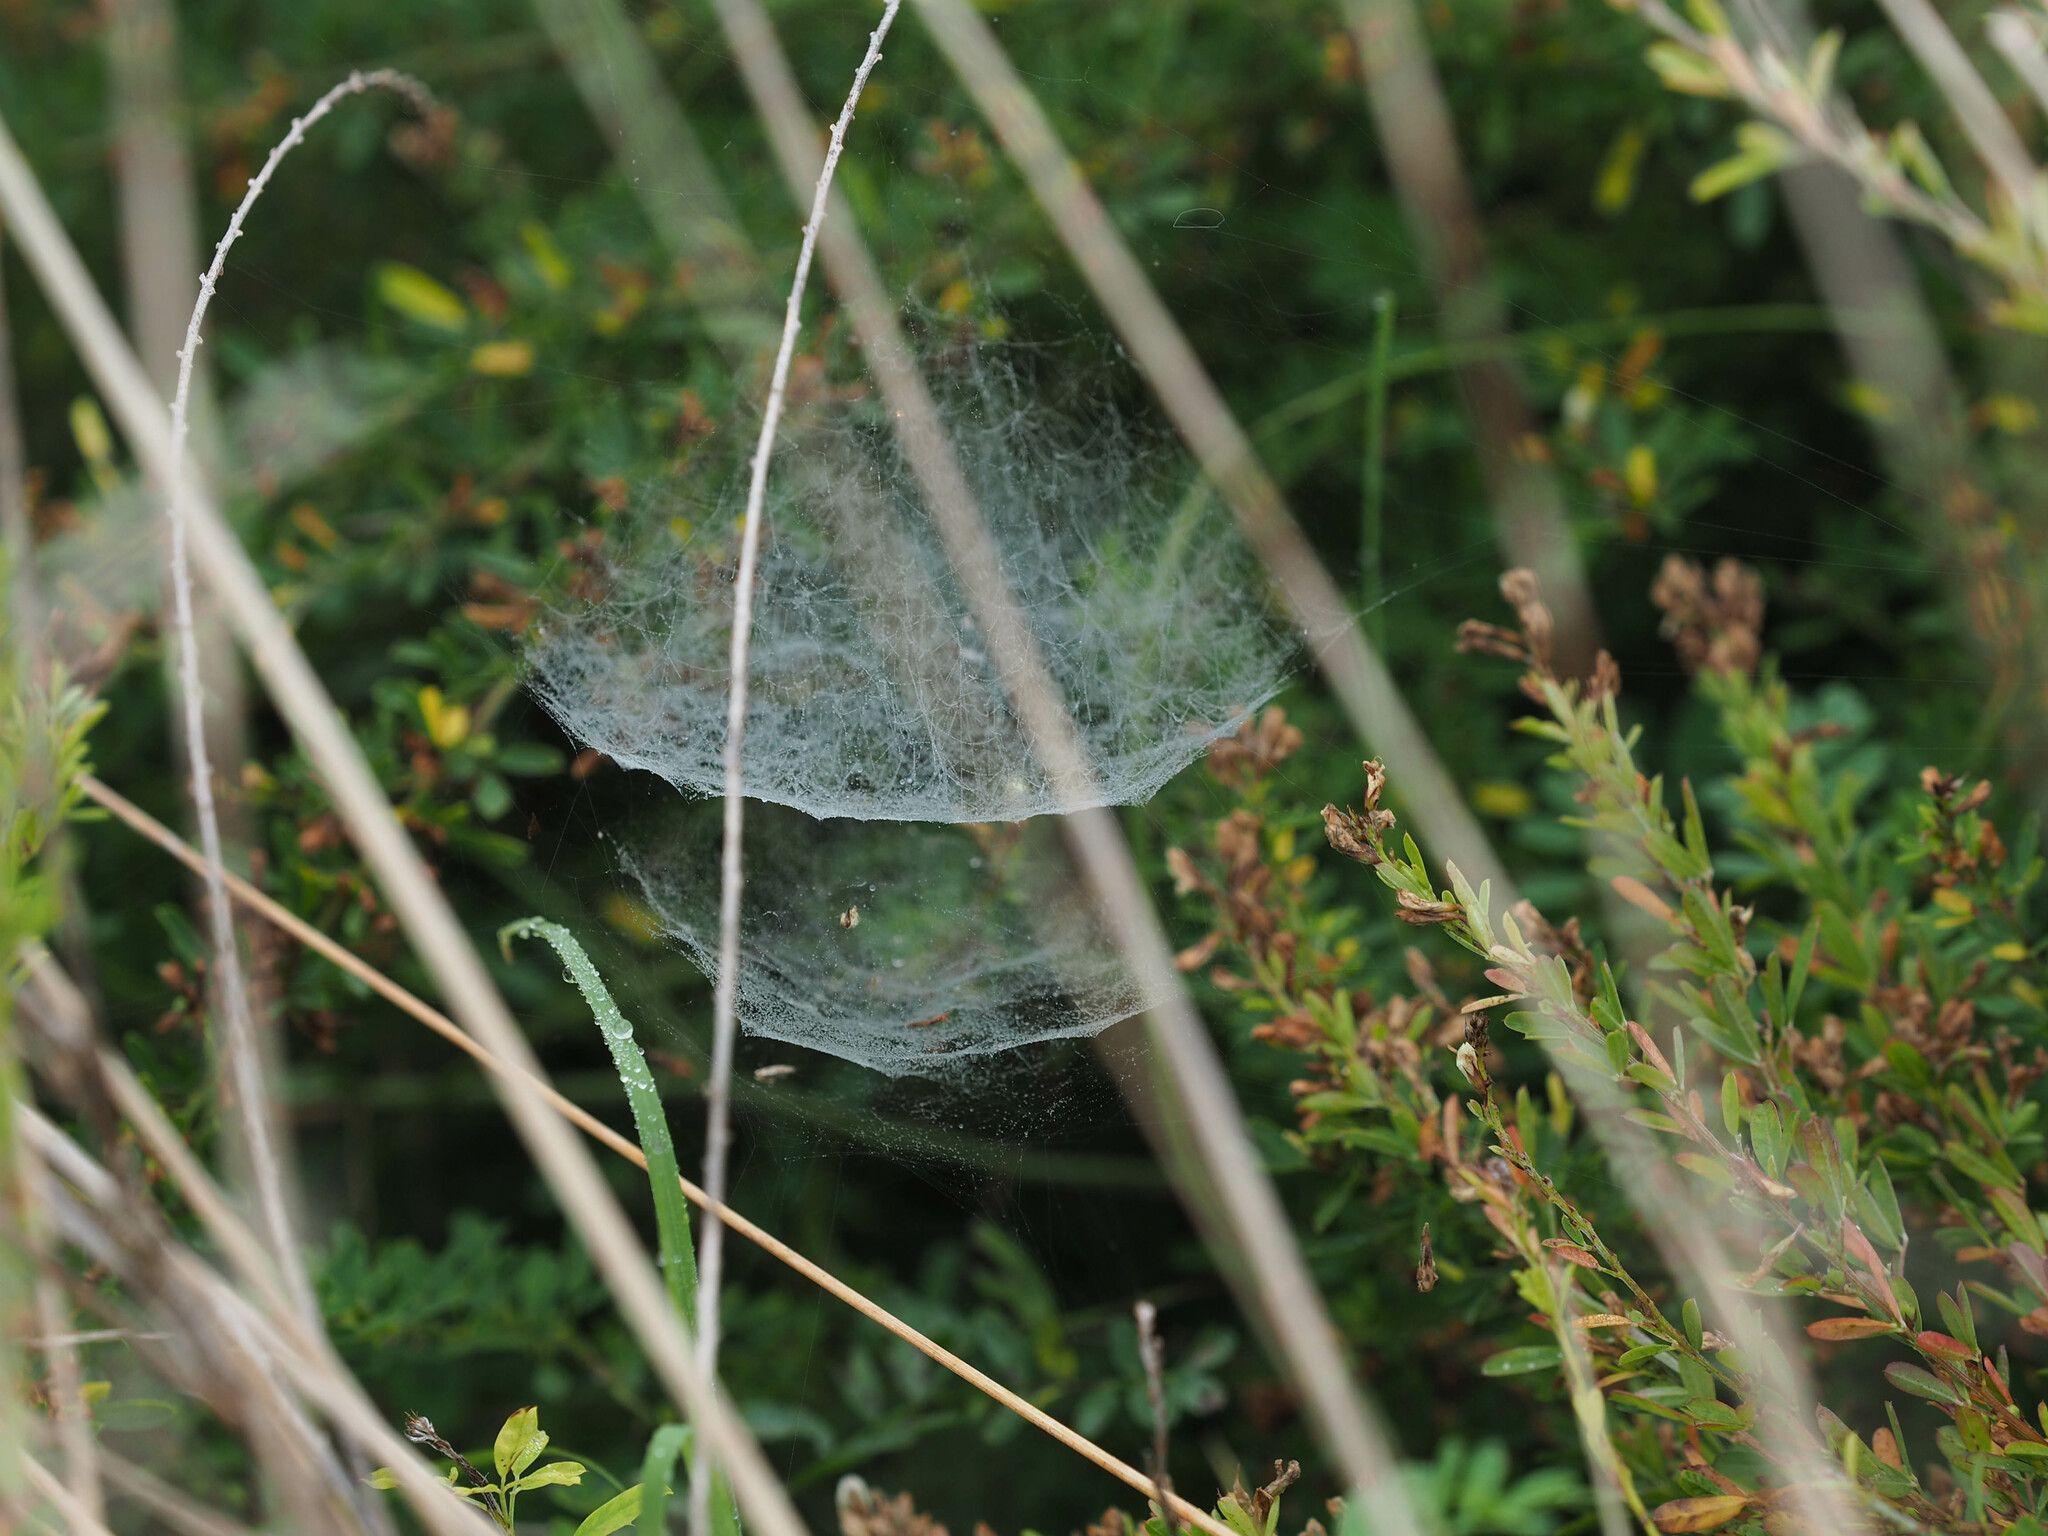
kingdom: Animalia
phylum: Arthropoda
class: Arachnida
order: Araneae
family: Linyphiidae
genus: Frontinella
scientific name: Frontinella pyramitela
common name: Bowl-and-doily spider
